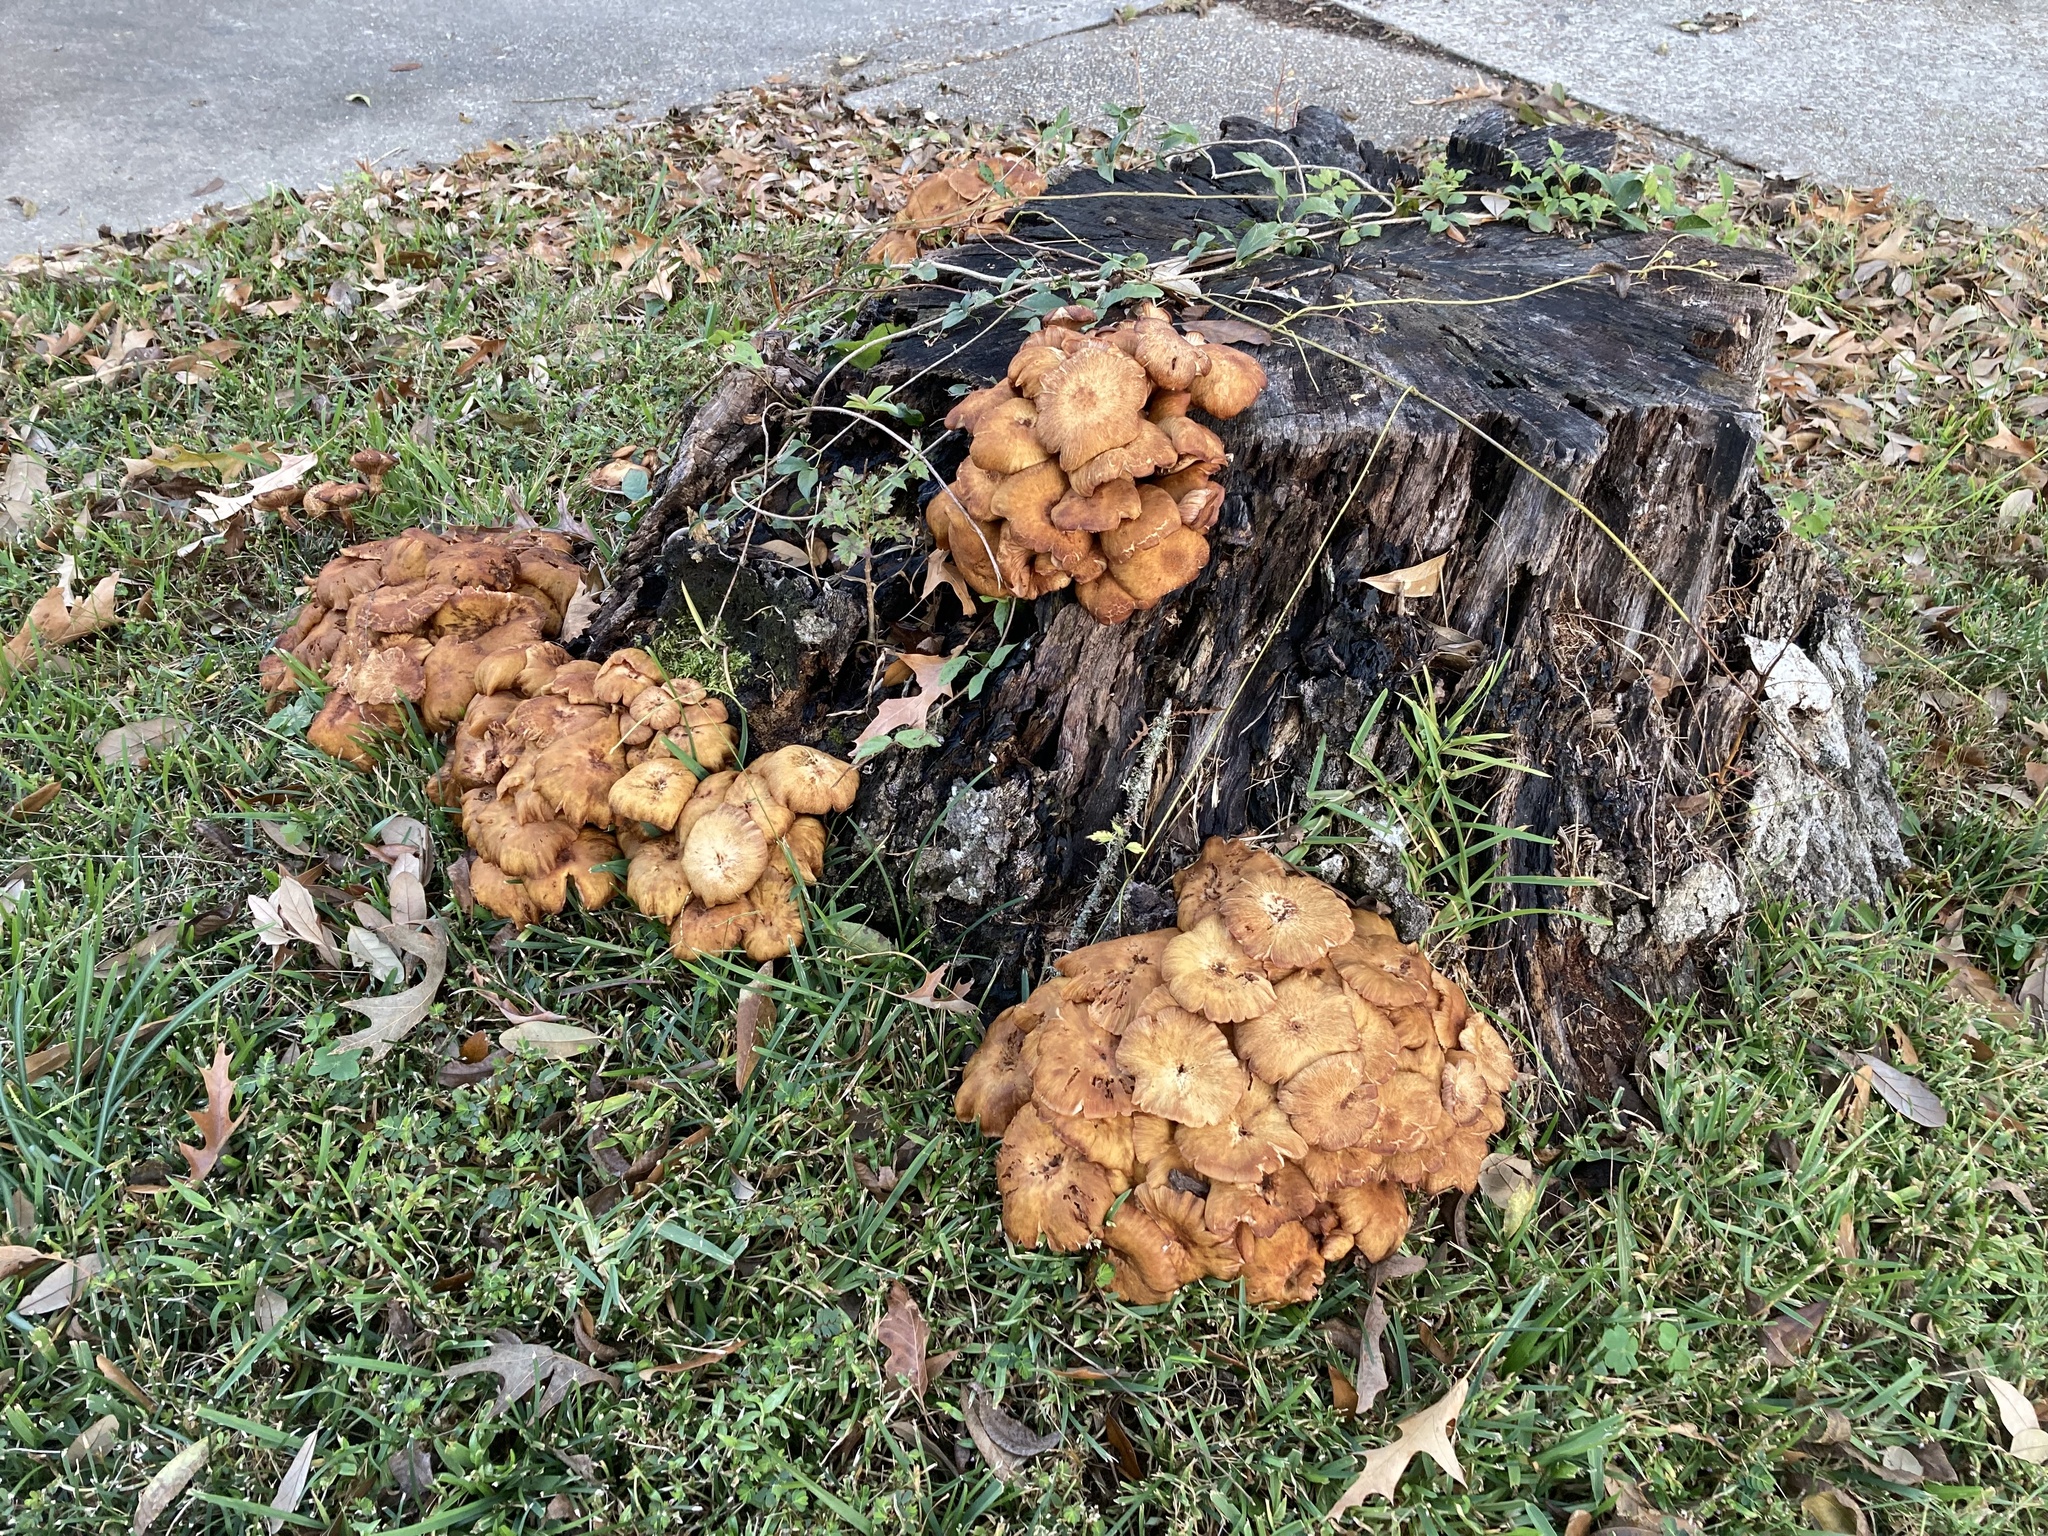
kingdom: Fungi
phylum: Basidiomycota
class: Agaricomycetes
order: Agaricales
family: Physalacriaceae
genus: Desarmillaria
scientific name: Desarmillaria caespitosa
